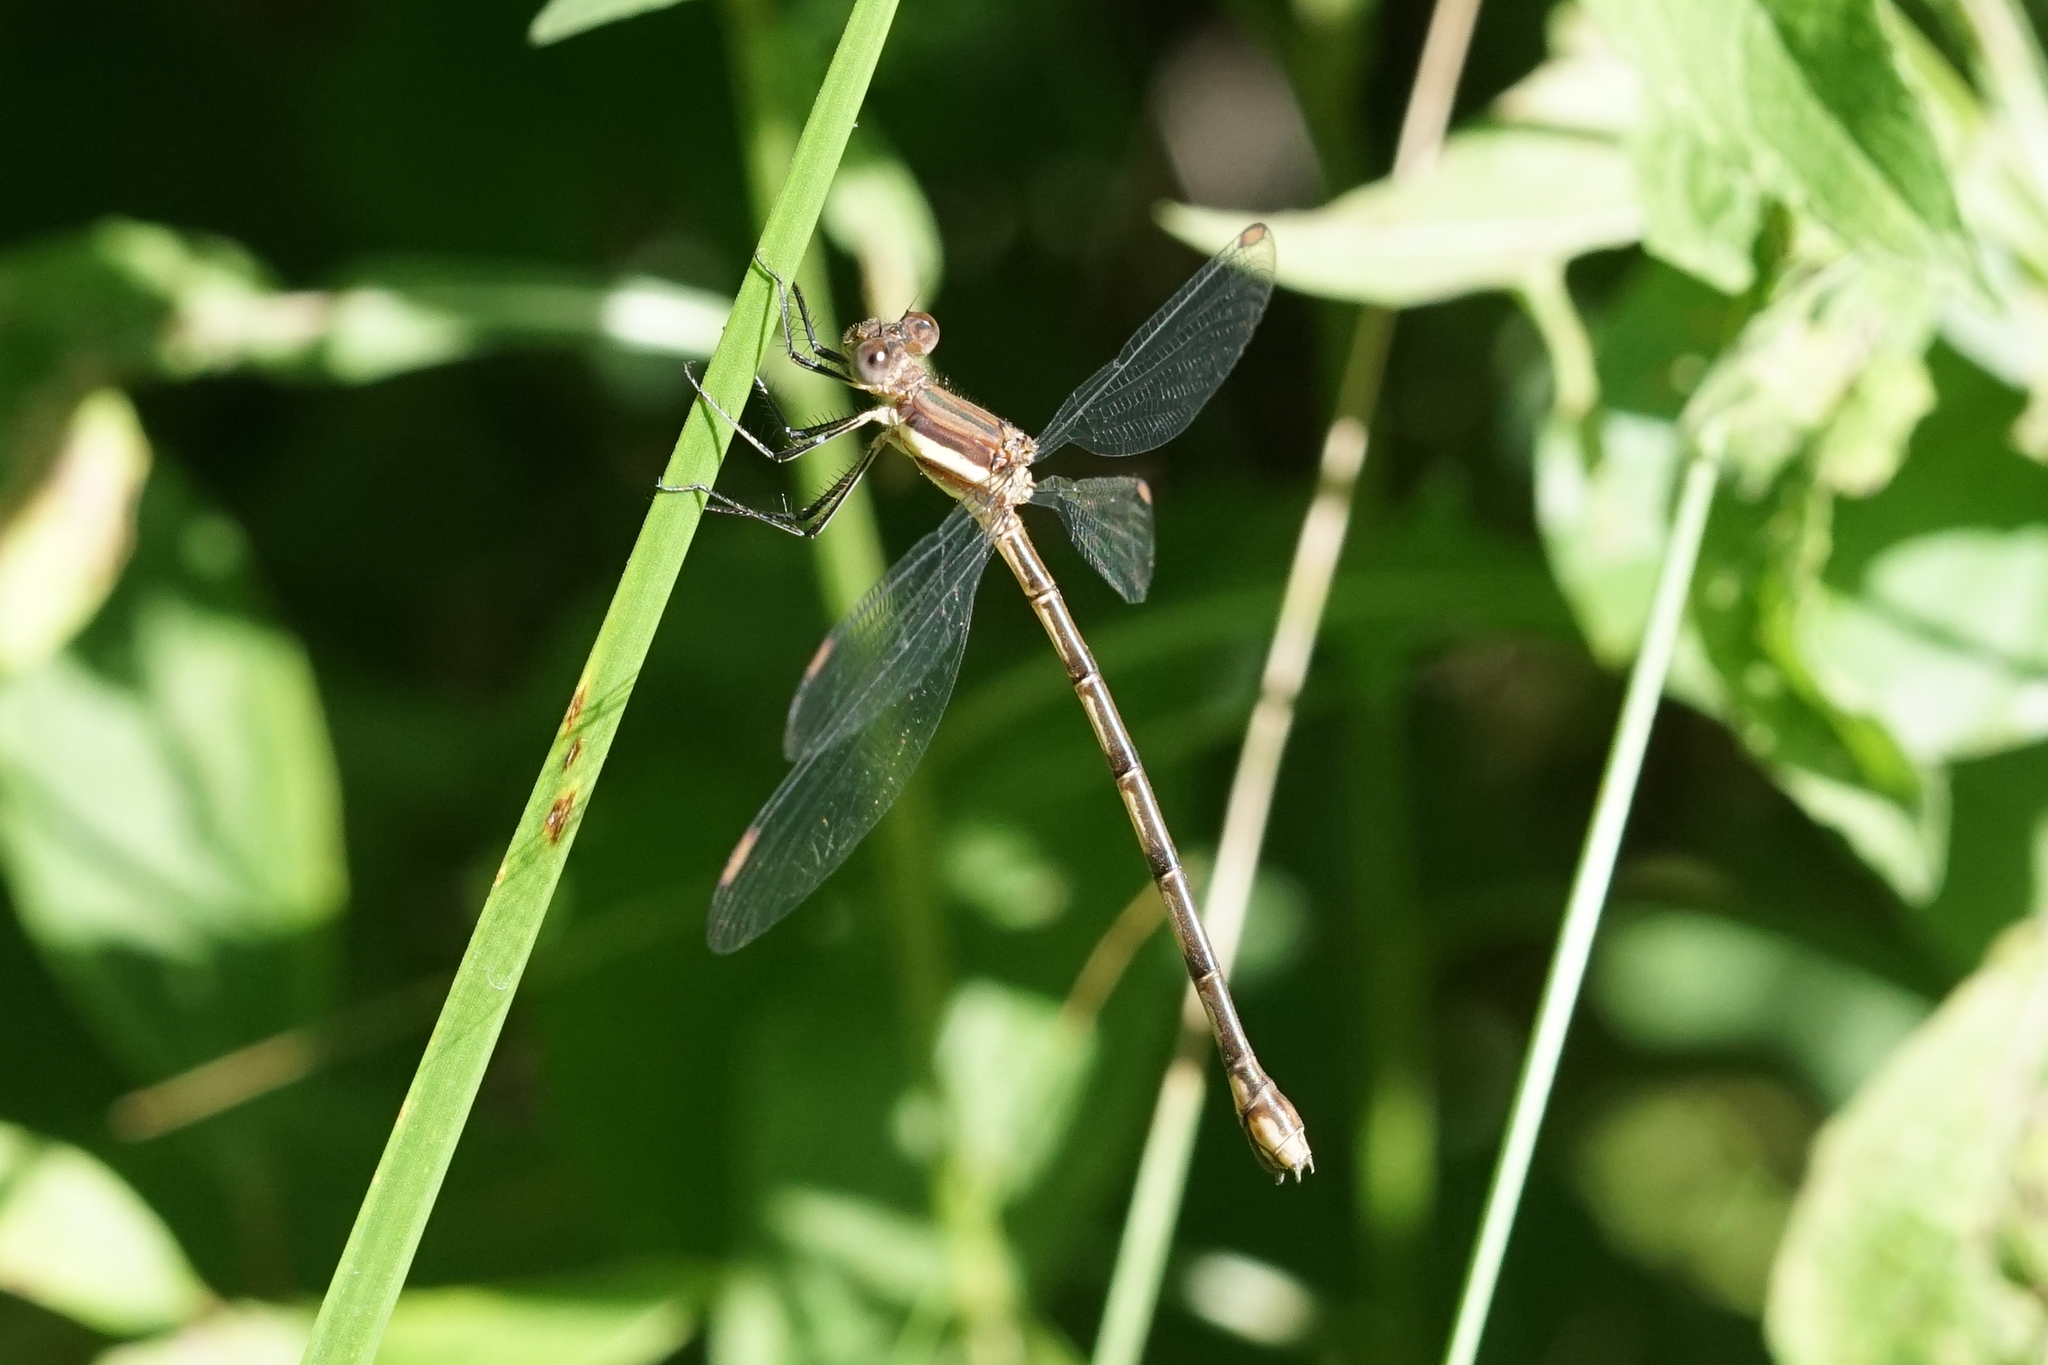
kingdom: Animalia
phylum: Arthropoda
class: Insecta
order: Odonata
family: Lestidae
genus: Archilestes
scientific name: Archilestes grandis
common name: Great spreadwing
